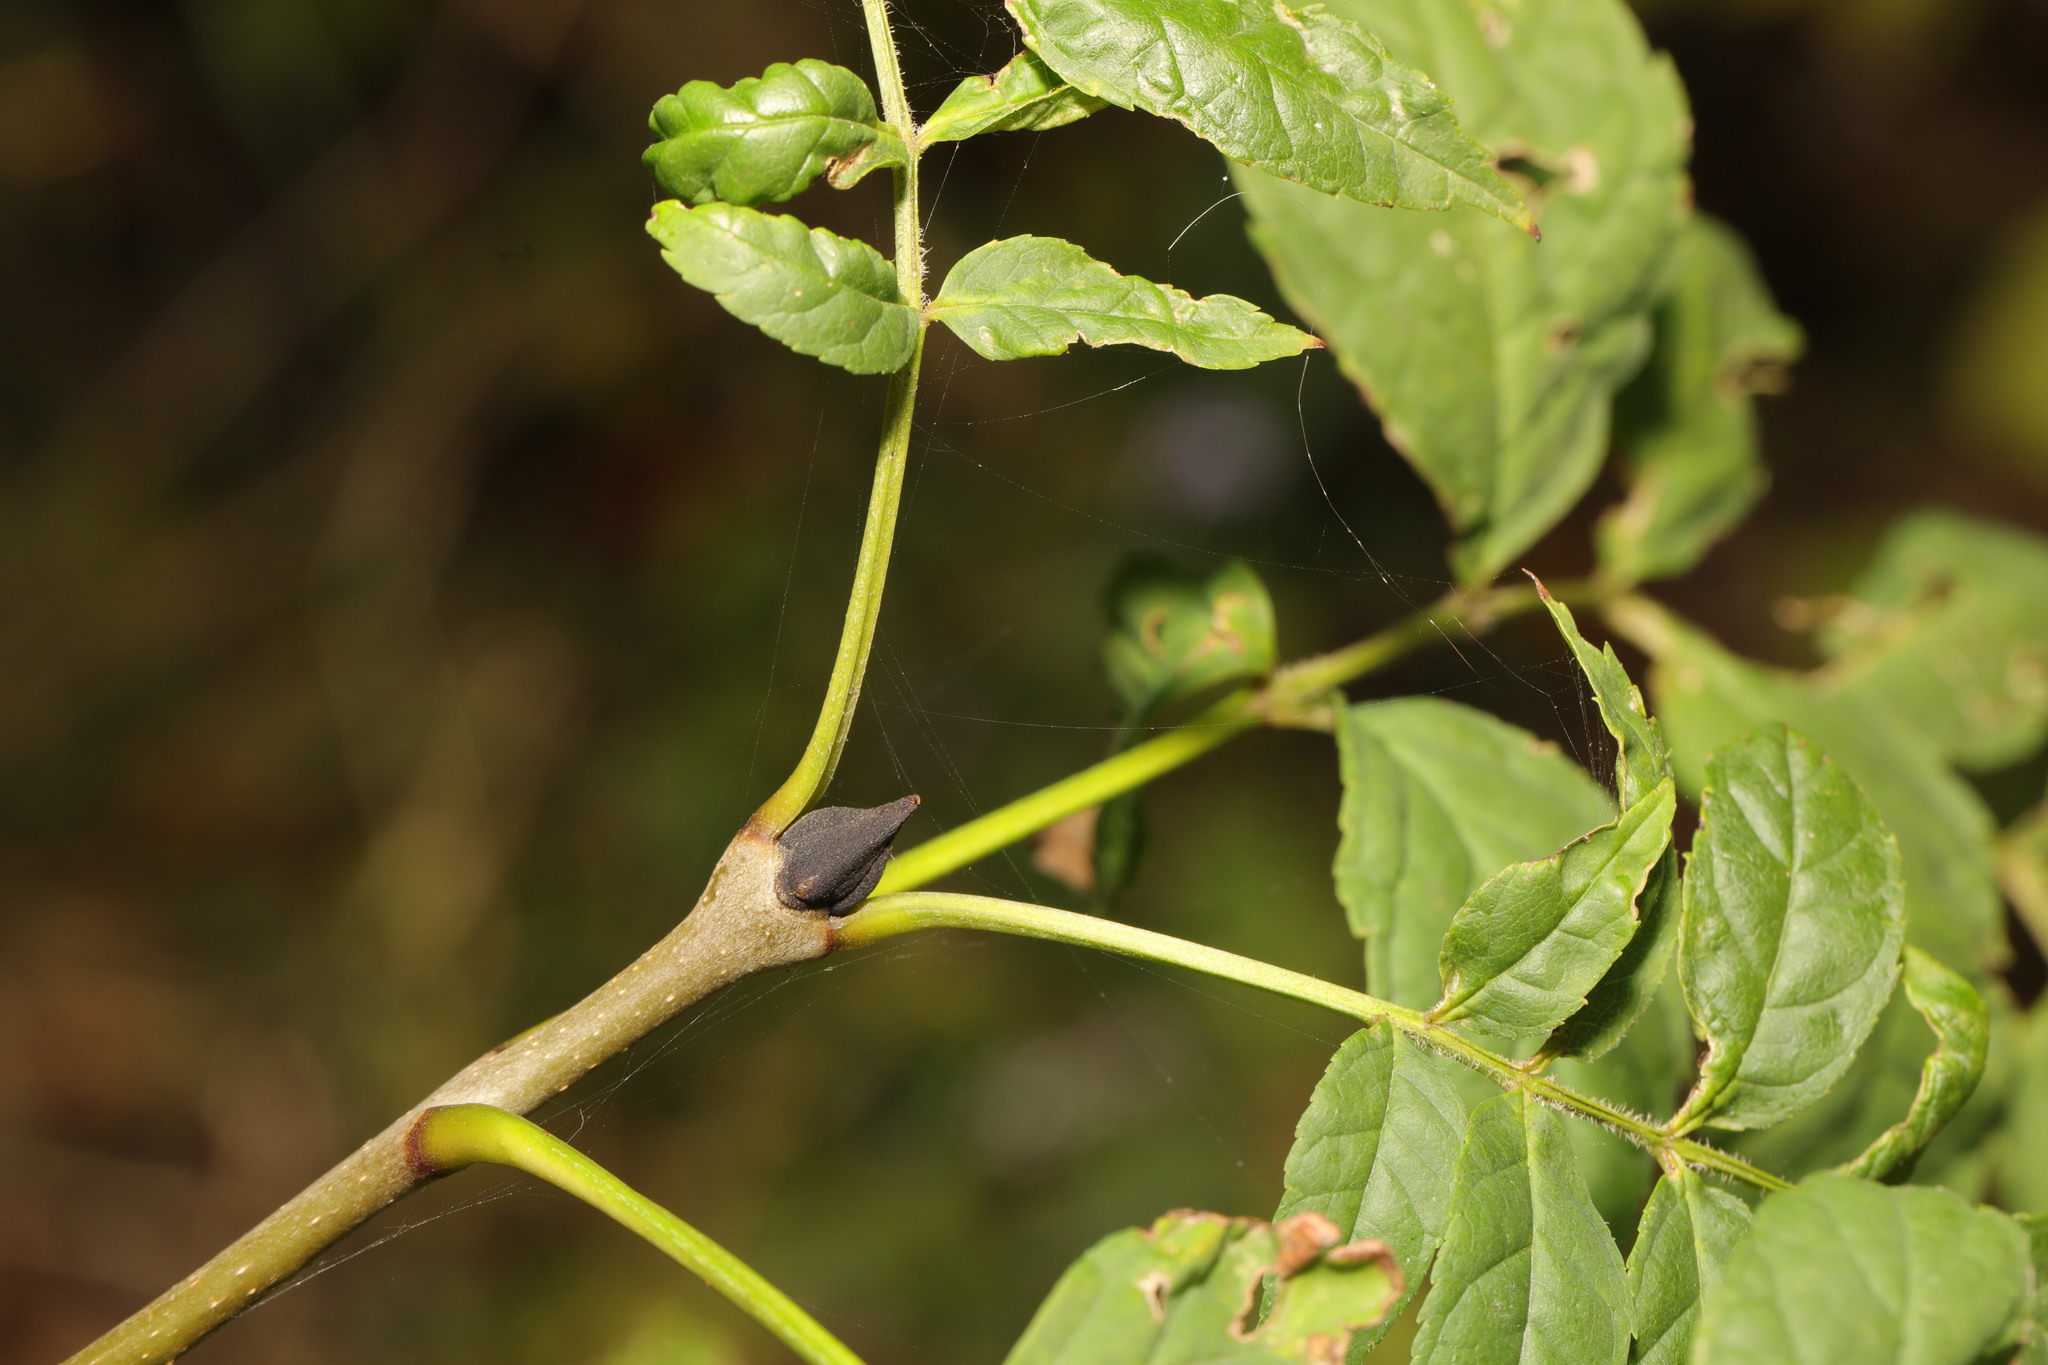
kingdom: Plantae
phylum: Tracheophyta
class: Magnoliopsida
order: Lamiales
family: Oleaceae
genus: Fraxinus
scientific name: Fraxinus excelsior
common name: European ash
